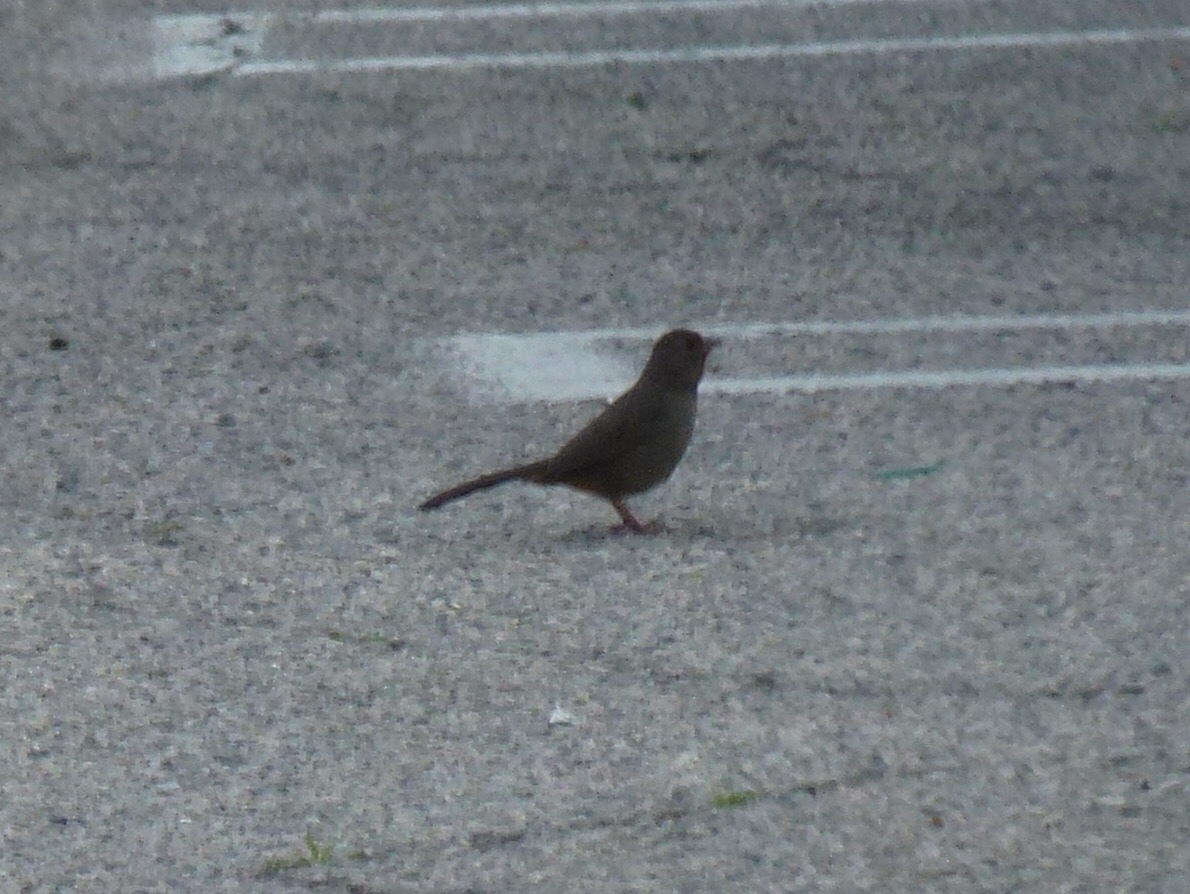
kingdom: Animalia
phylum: Chordata
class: Aves
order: Passeriformes
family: Passerellidae
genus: Melozone
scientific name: Melozone crissalis
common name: California towhee
